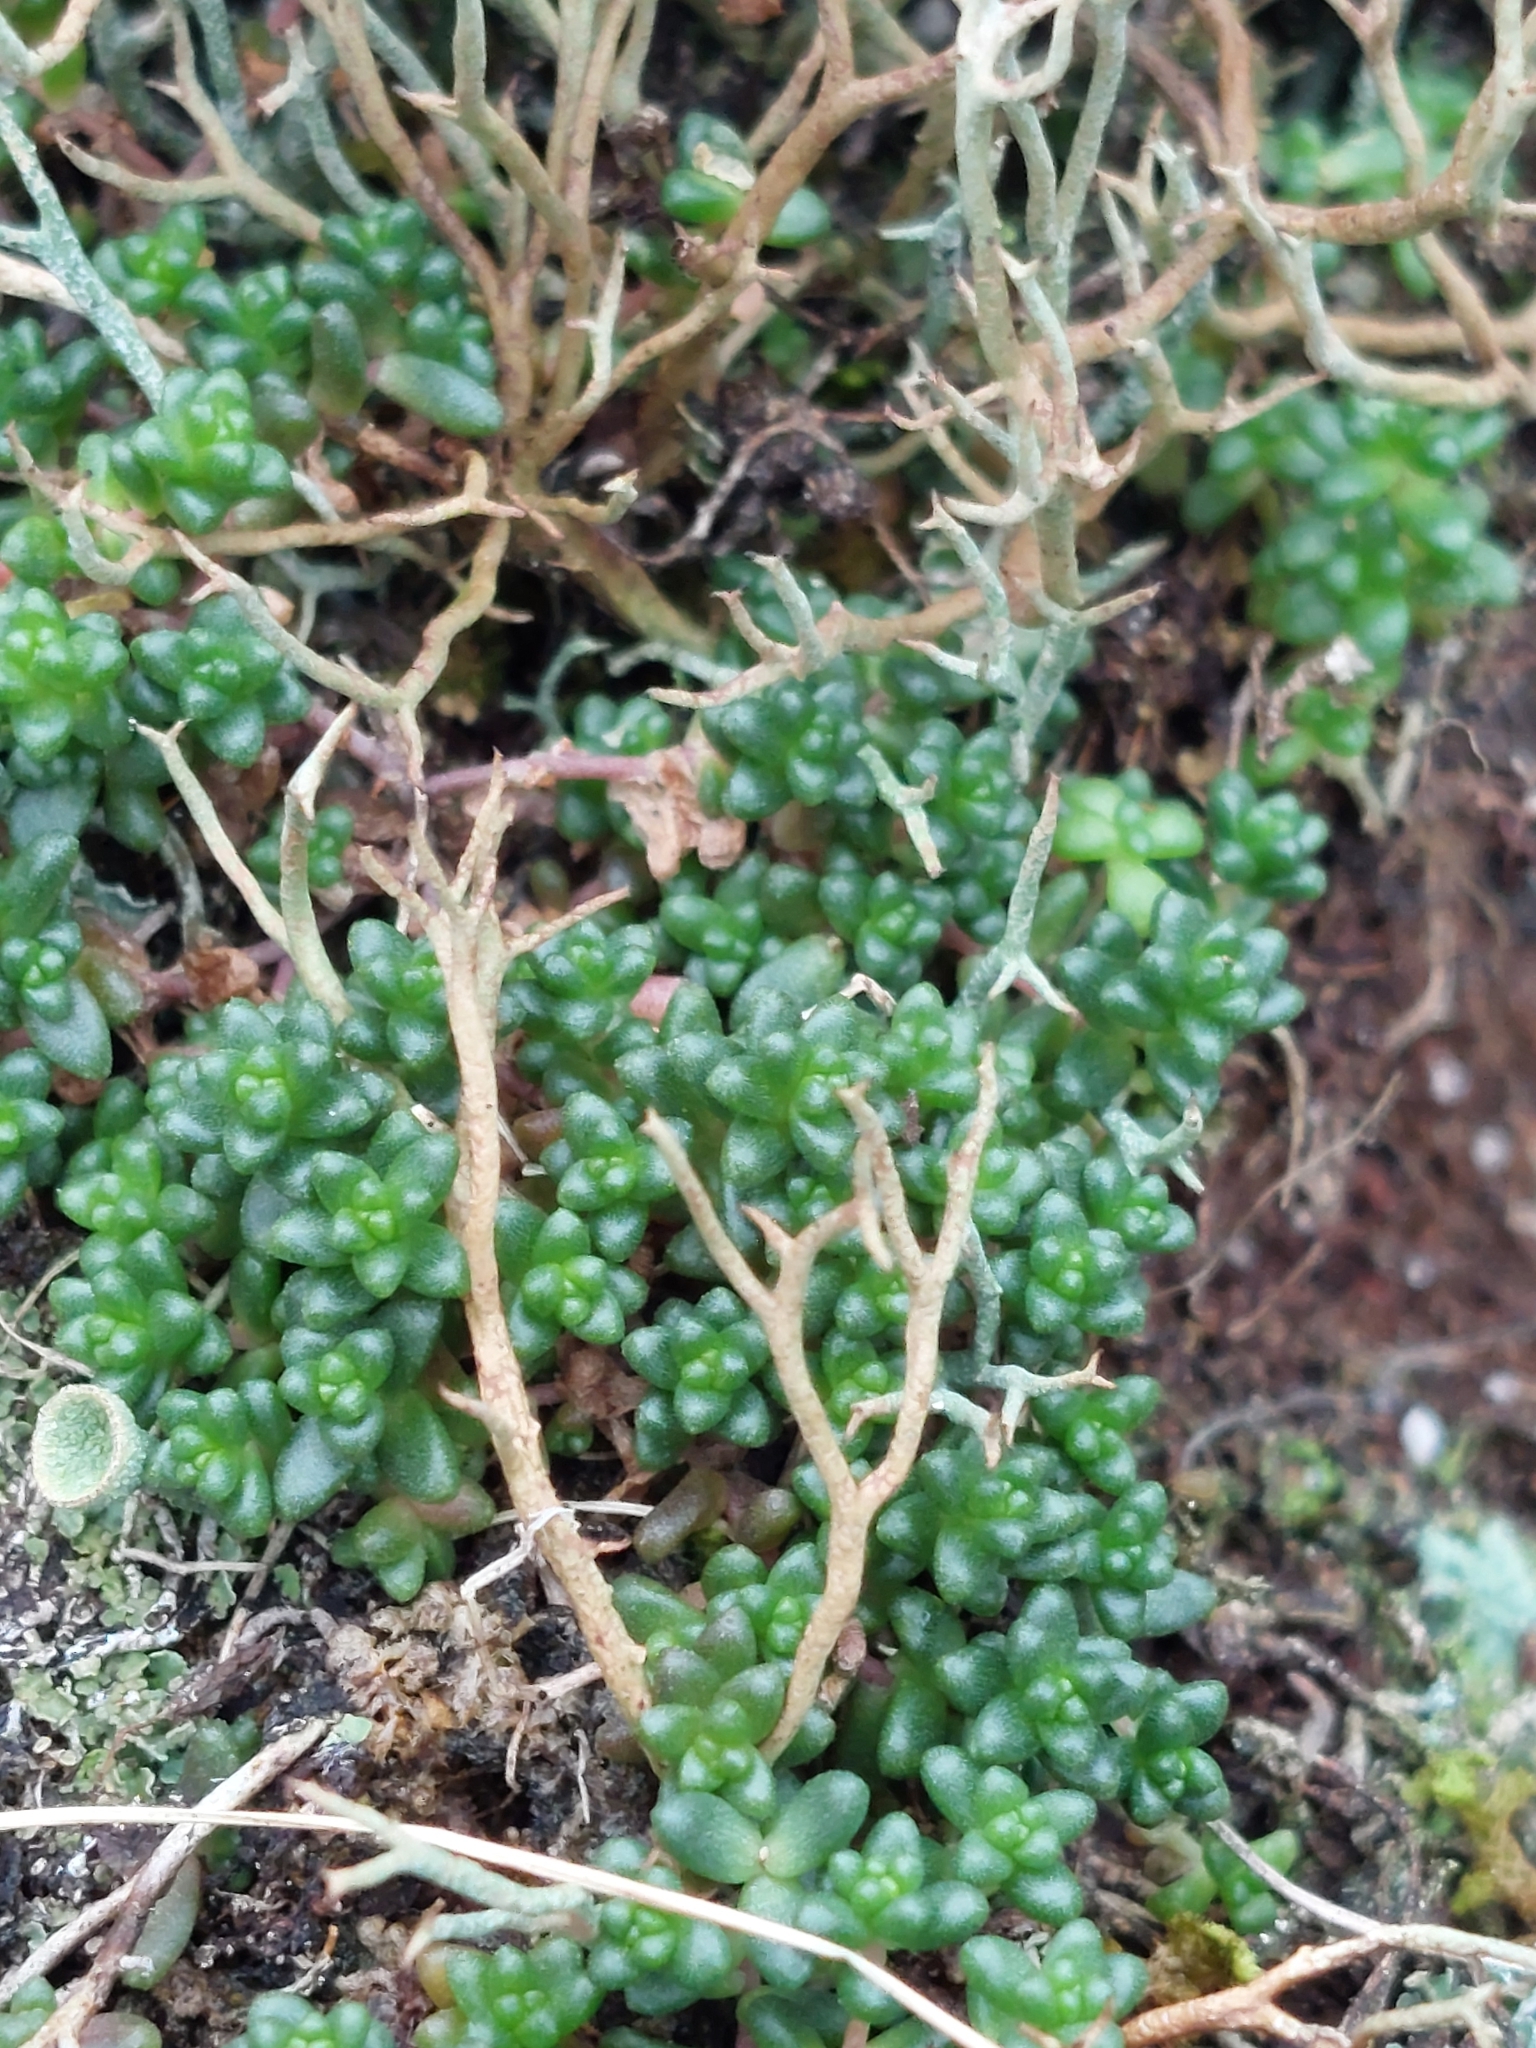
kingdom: Plantae
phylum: Tracheophyta
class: Magnoliopsida
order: Saxifragales
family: Crassulaceae
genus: Sedum
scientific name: Sedum anglicum
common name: English stonecrop
